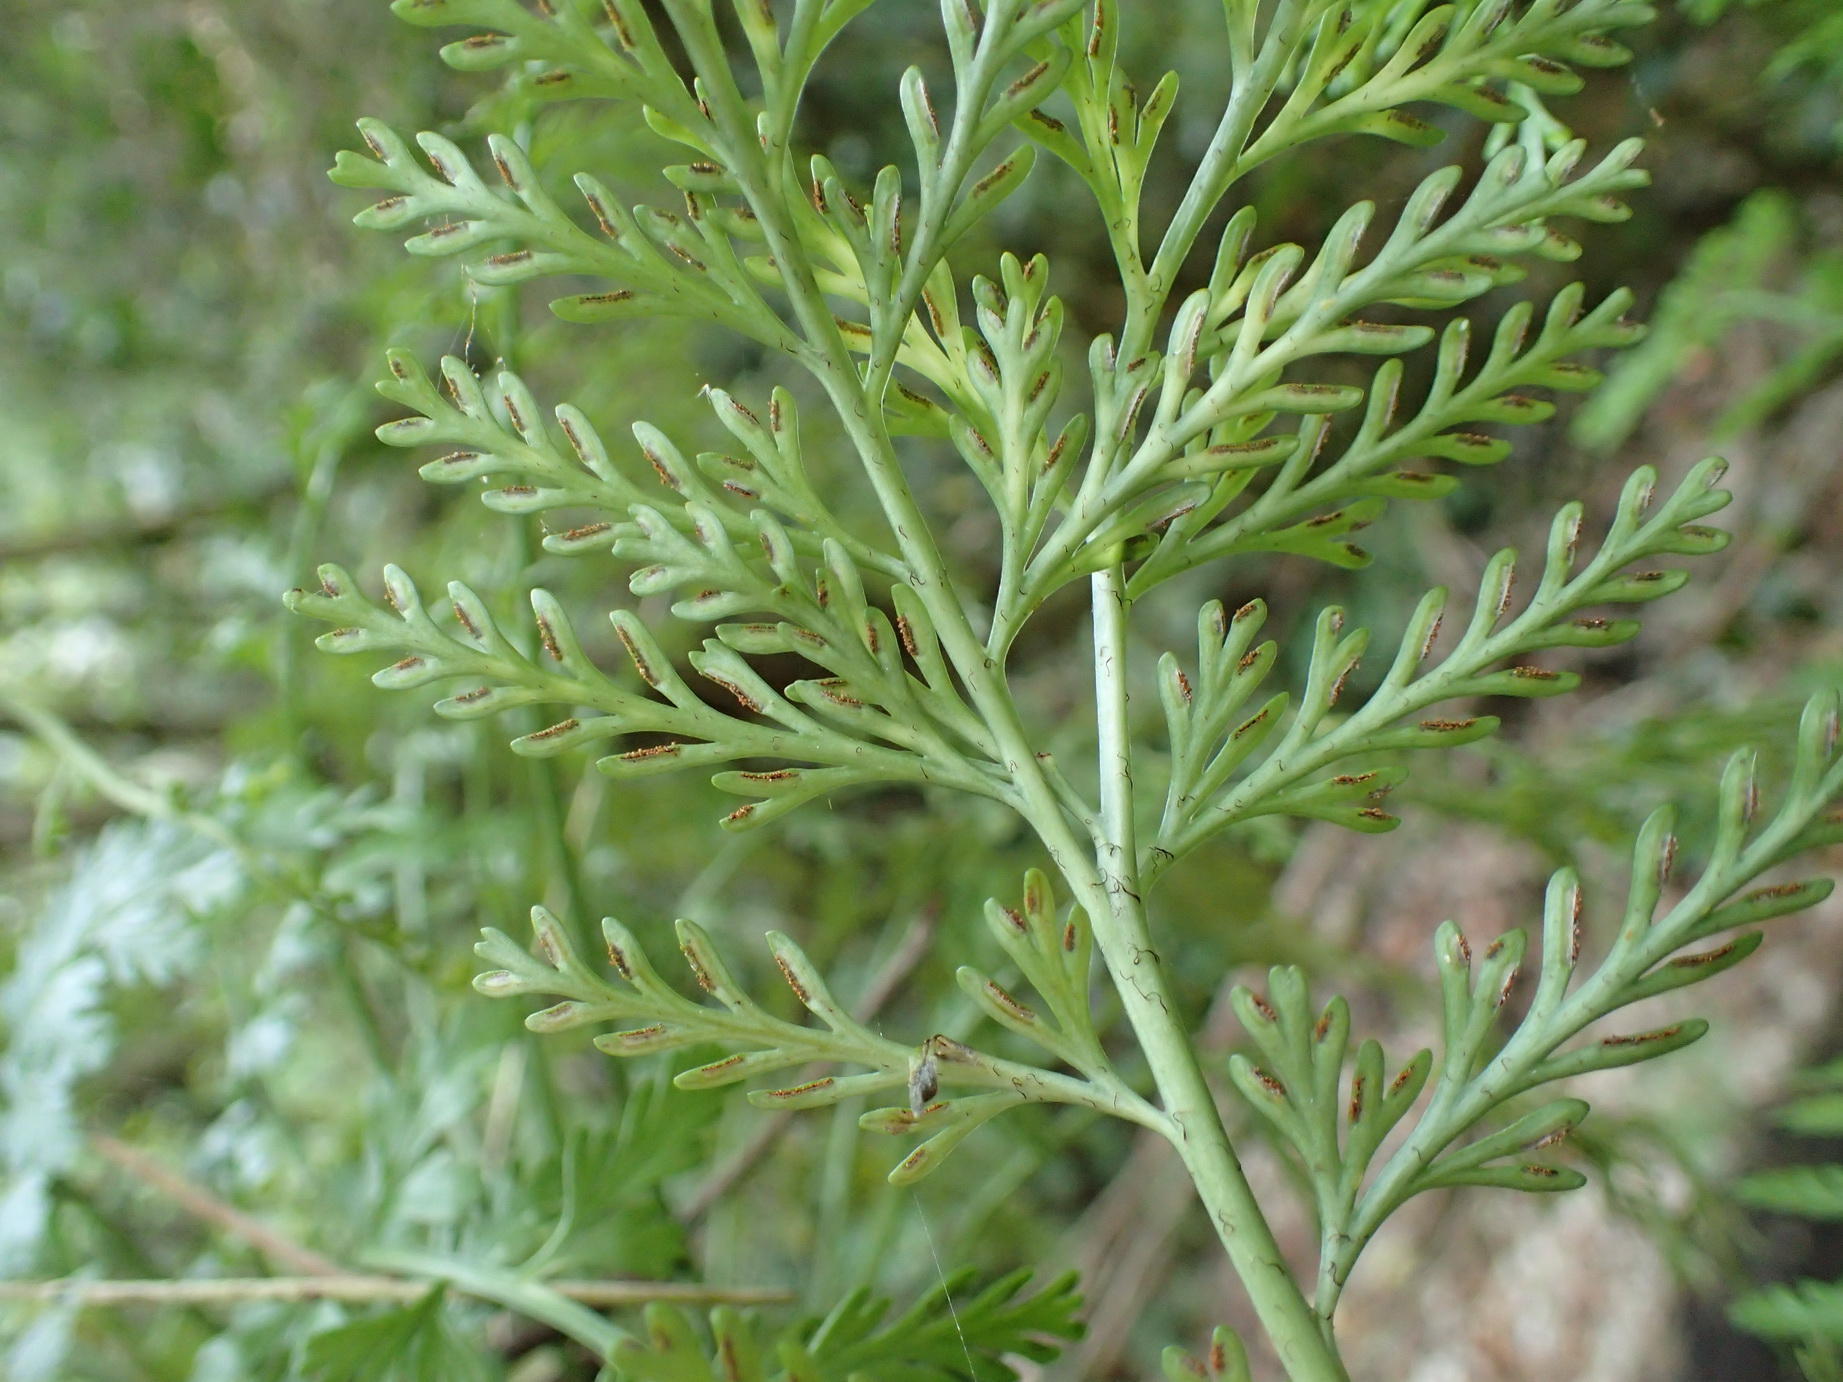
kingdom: Plantae
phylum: Tracheophyta
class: Polypodiopsida
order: Polypodiales
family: Aspleniaceae
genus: Asplenium
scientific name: Asplenium rutifolium
